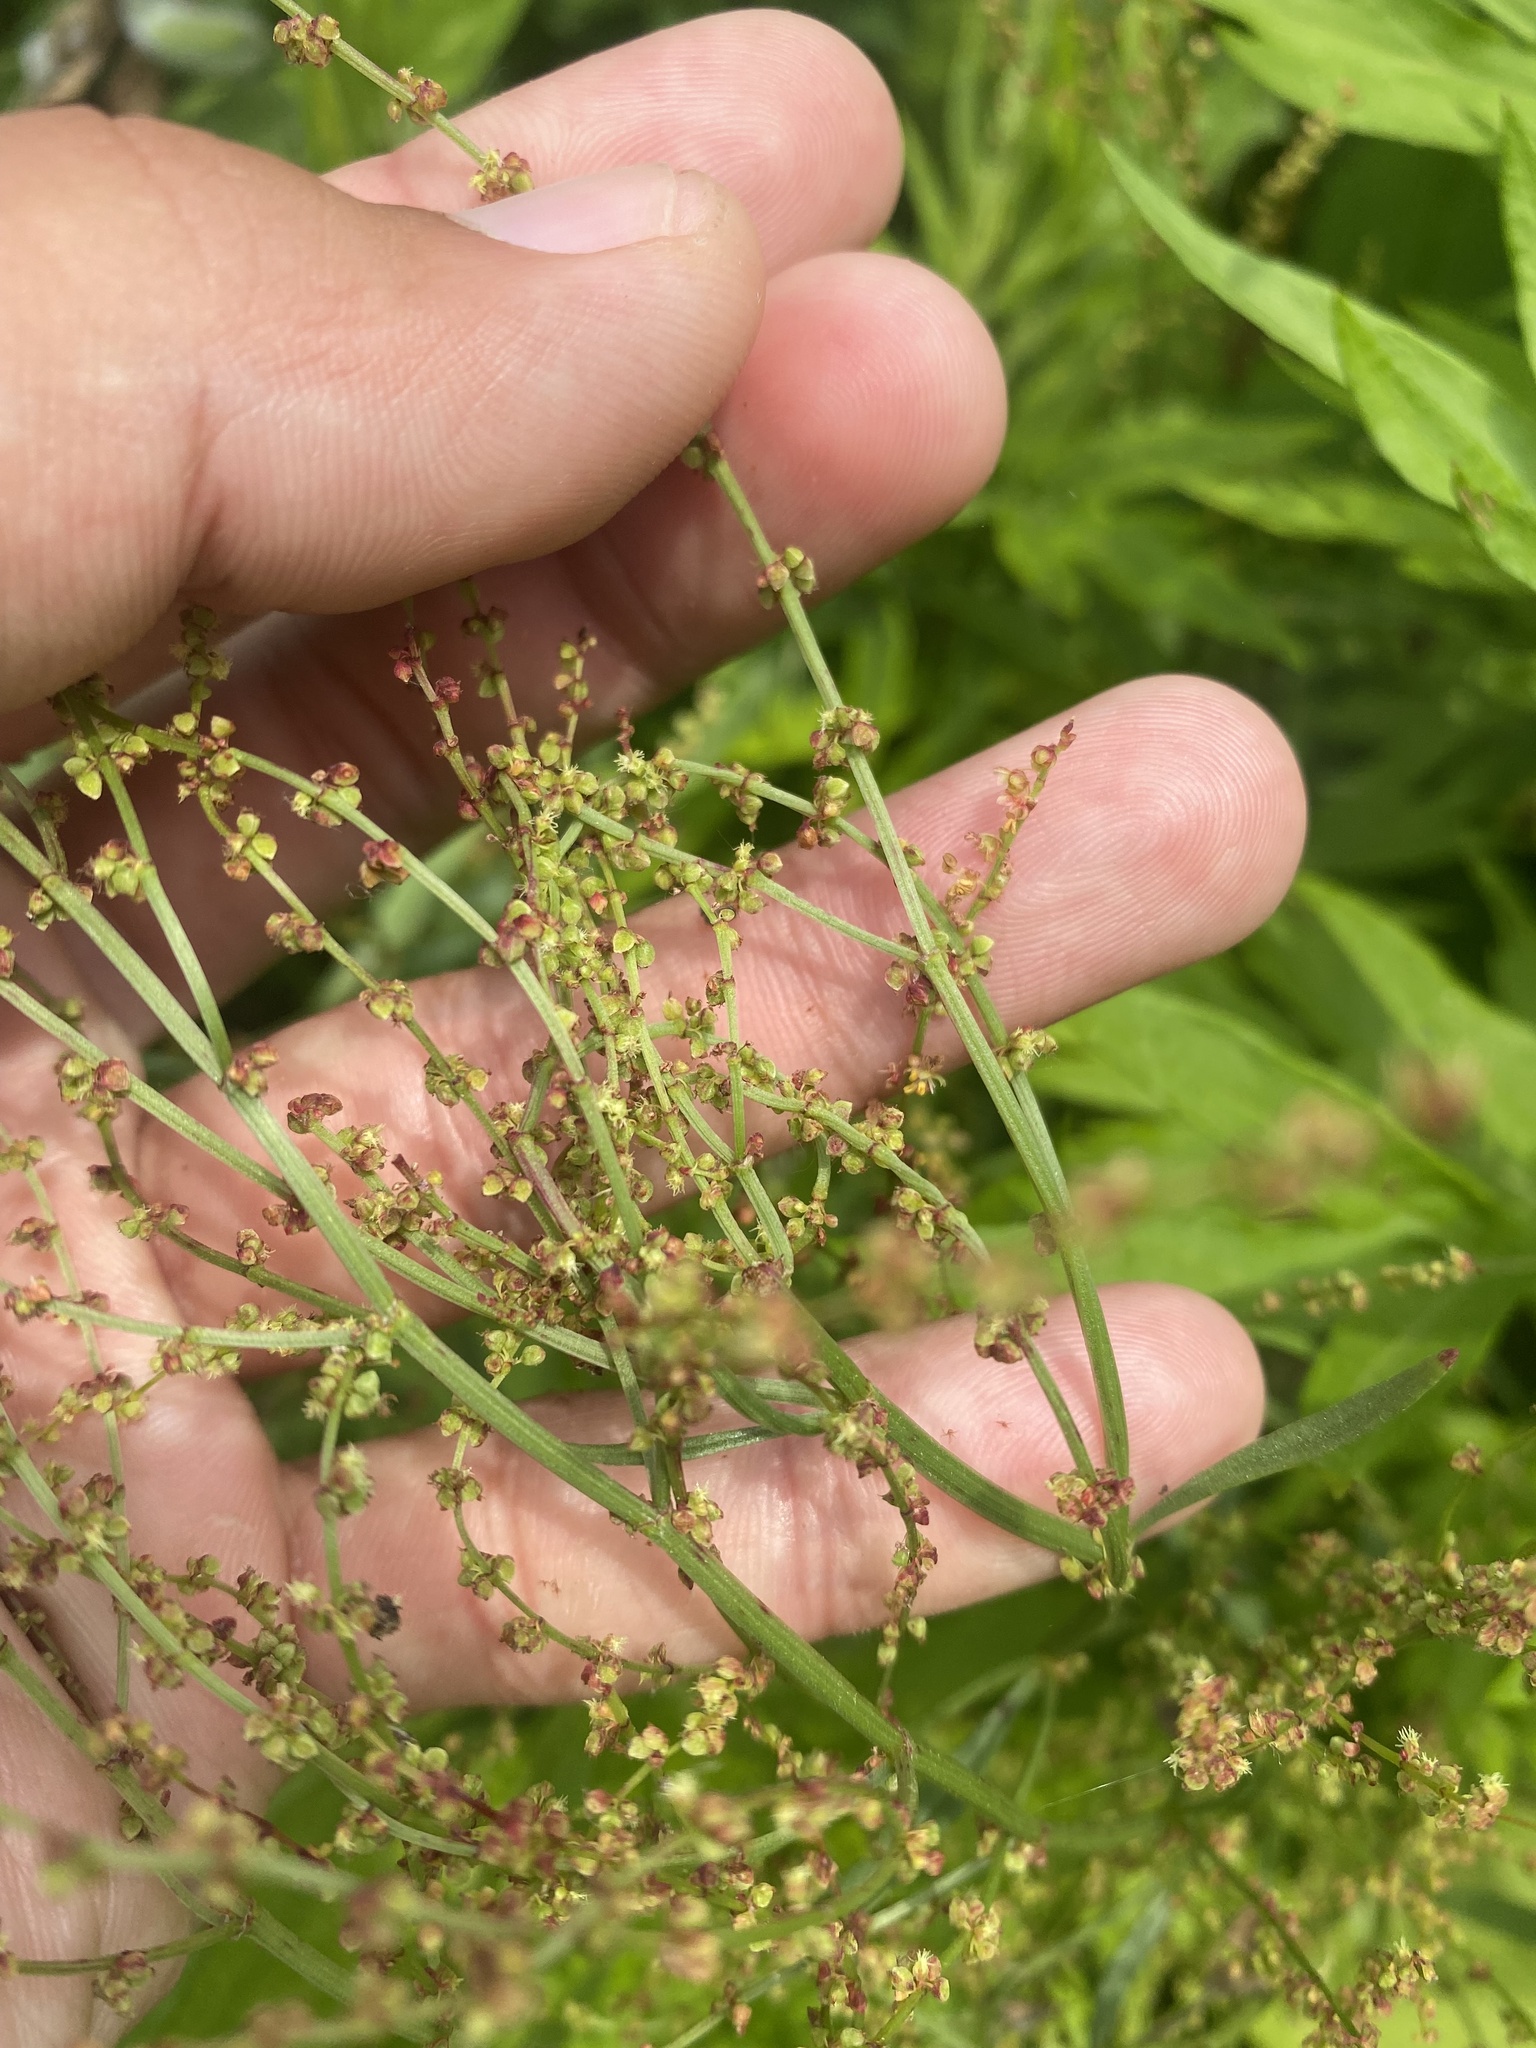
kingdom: Plantae
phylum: Tracheophyta
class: Magnoliopsida
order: Caryophyllales
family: Polygonaceae
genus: Rumex
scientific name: Rumex acetosella
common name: Common sheep sorrel
